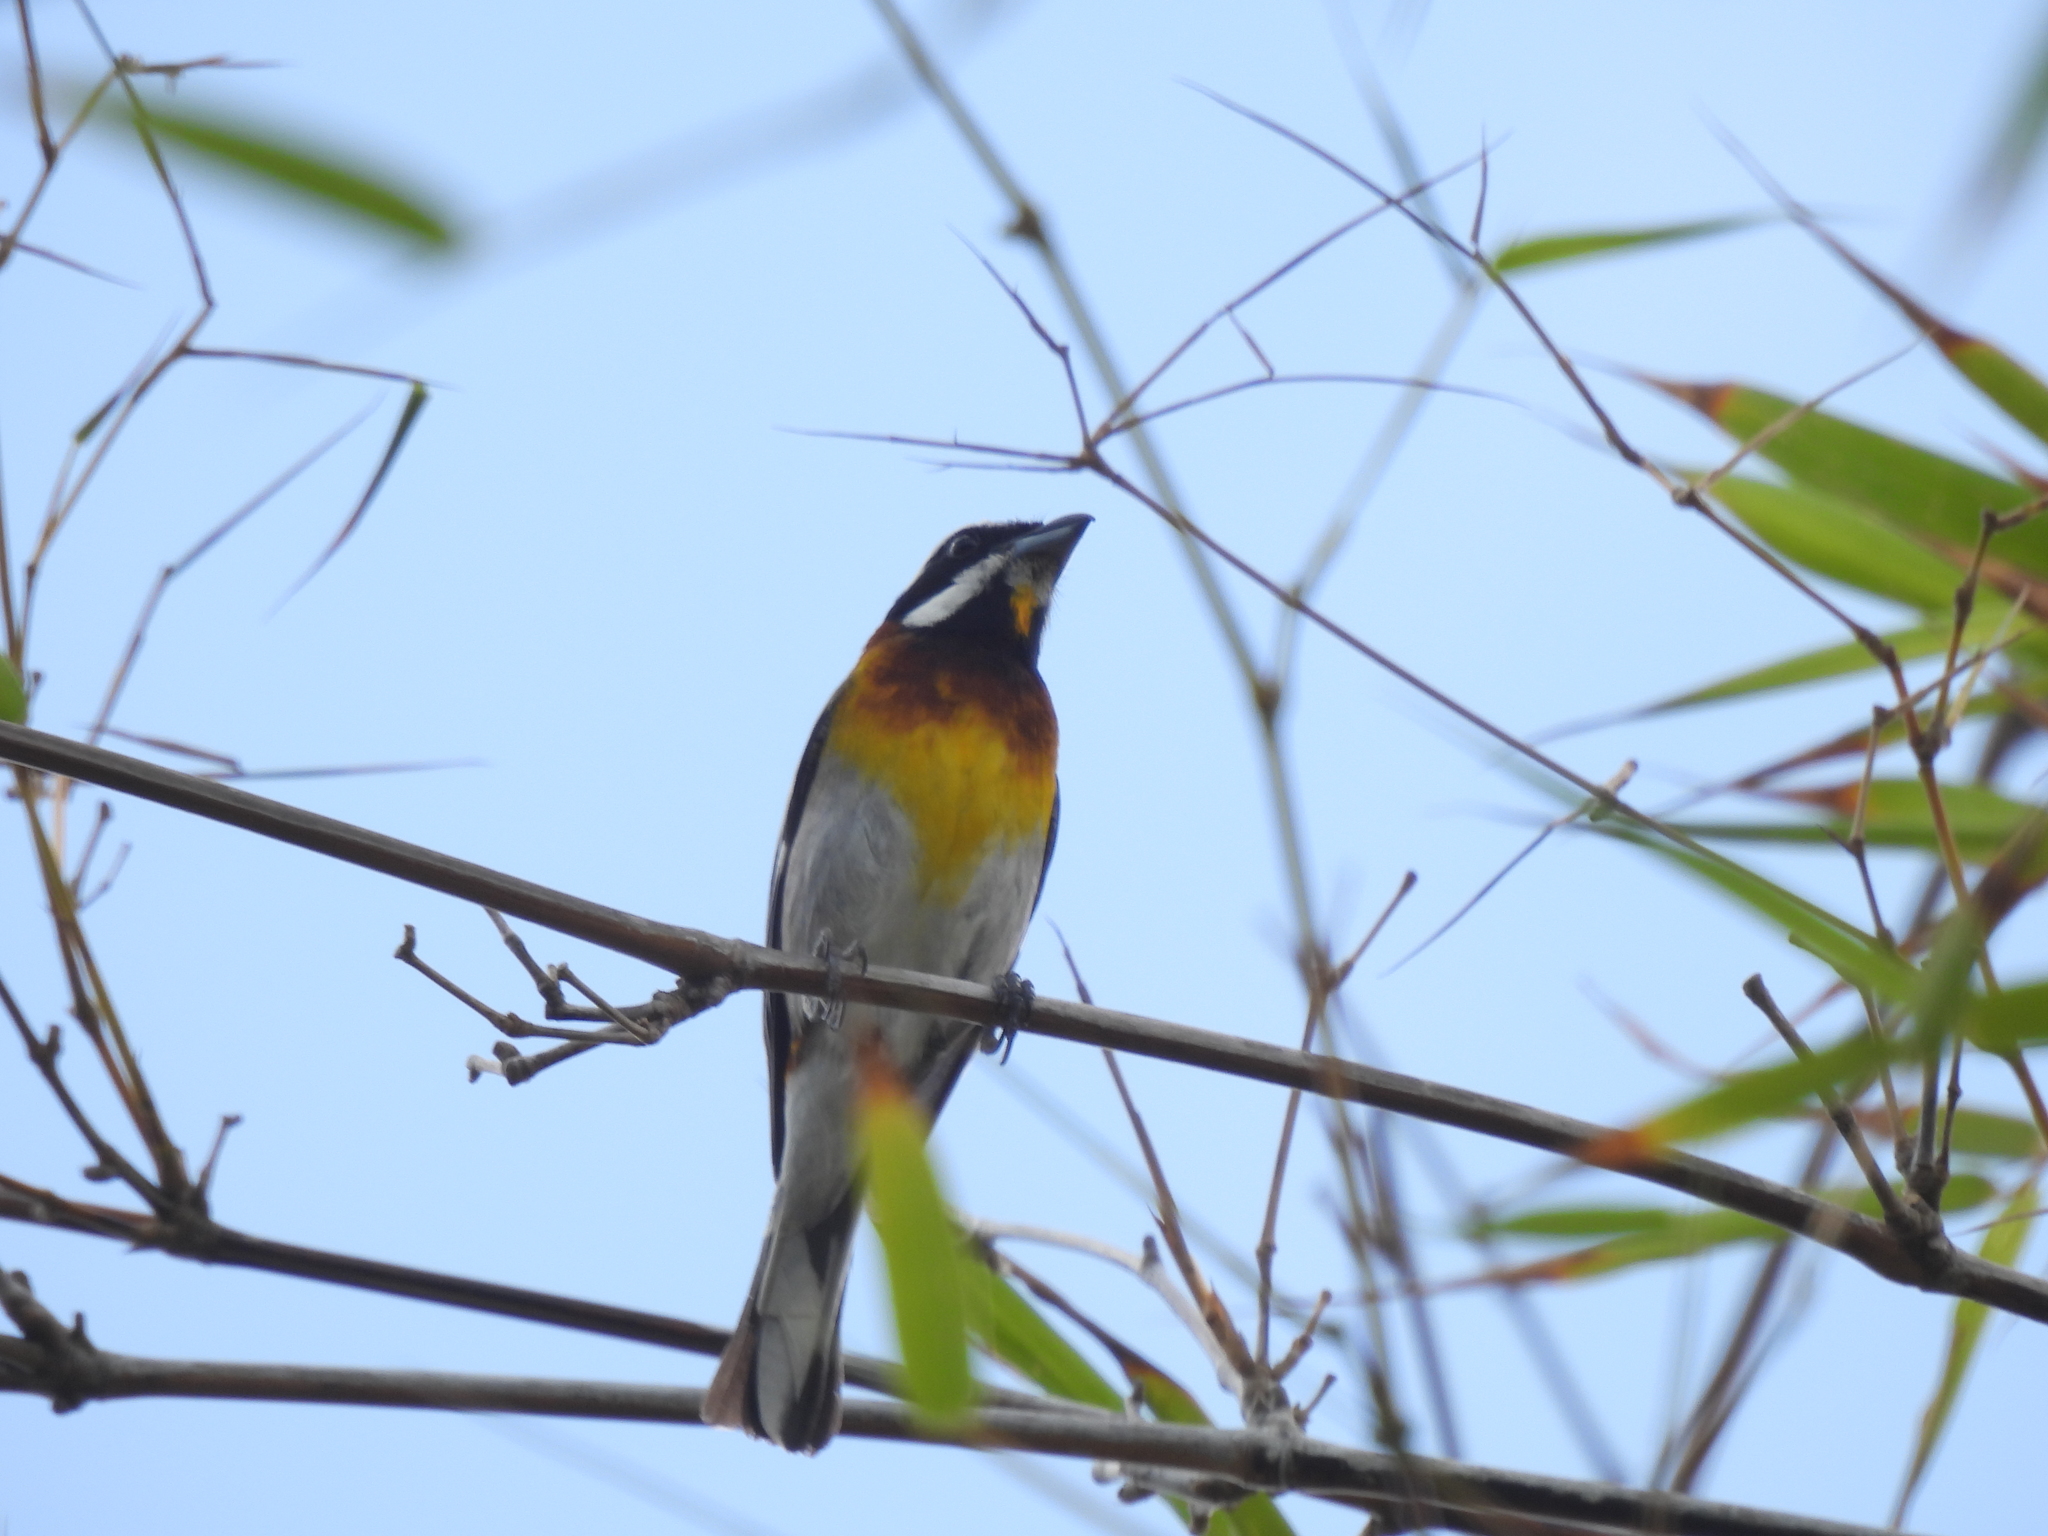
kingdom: Animalia
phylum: Chordata
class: Aves
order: Passeriformes
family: Spindalidae
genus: Spindalis
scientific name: Spindalis zena
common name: Western spindalis
